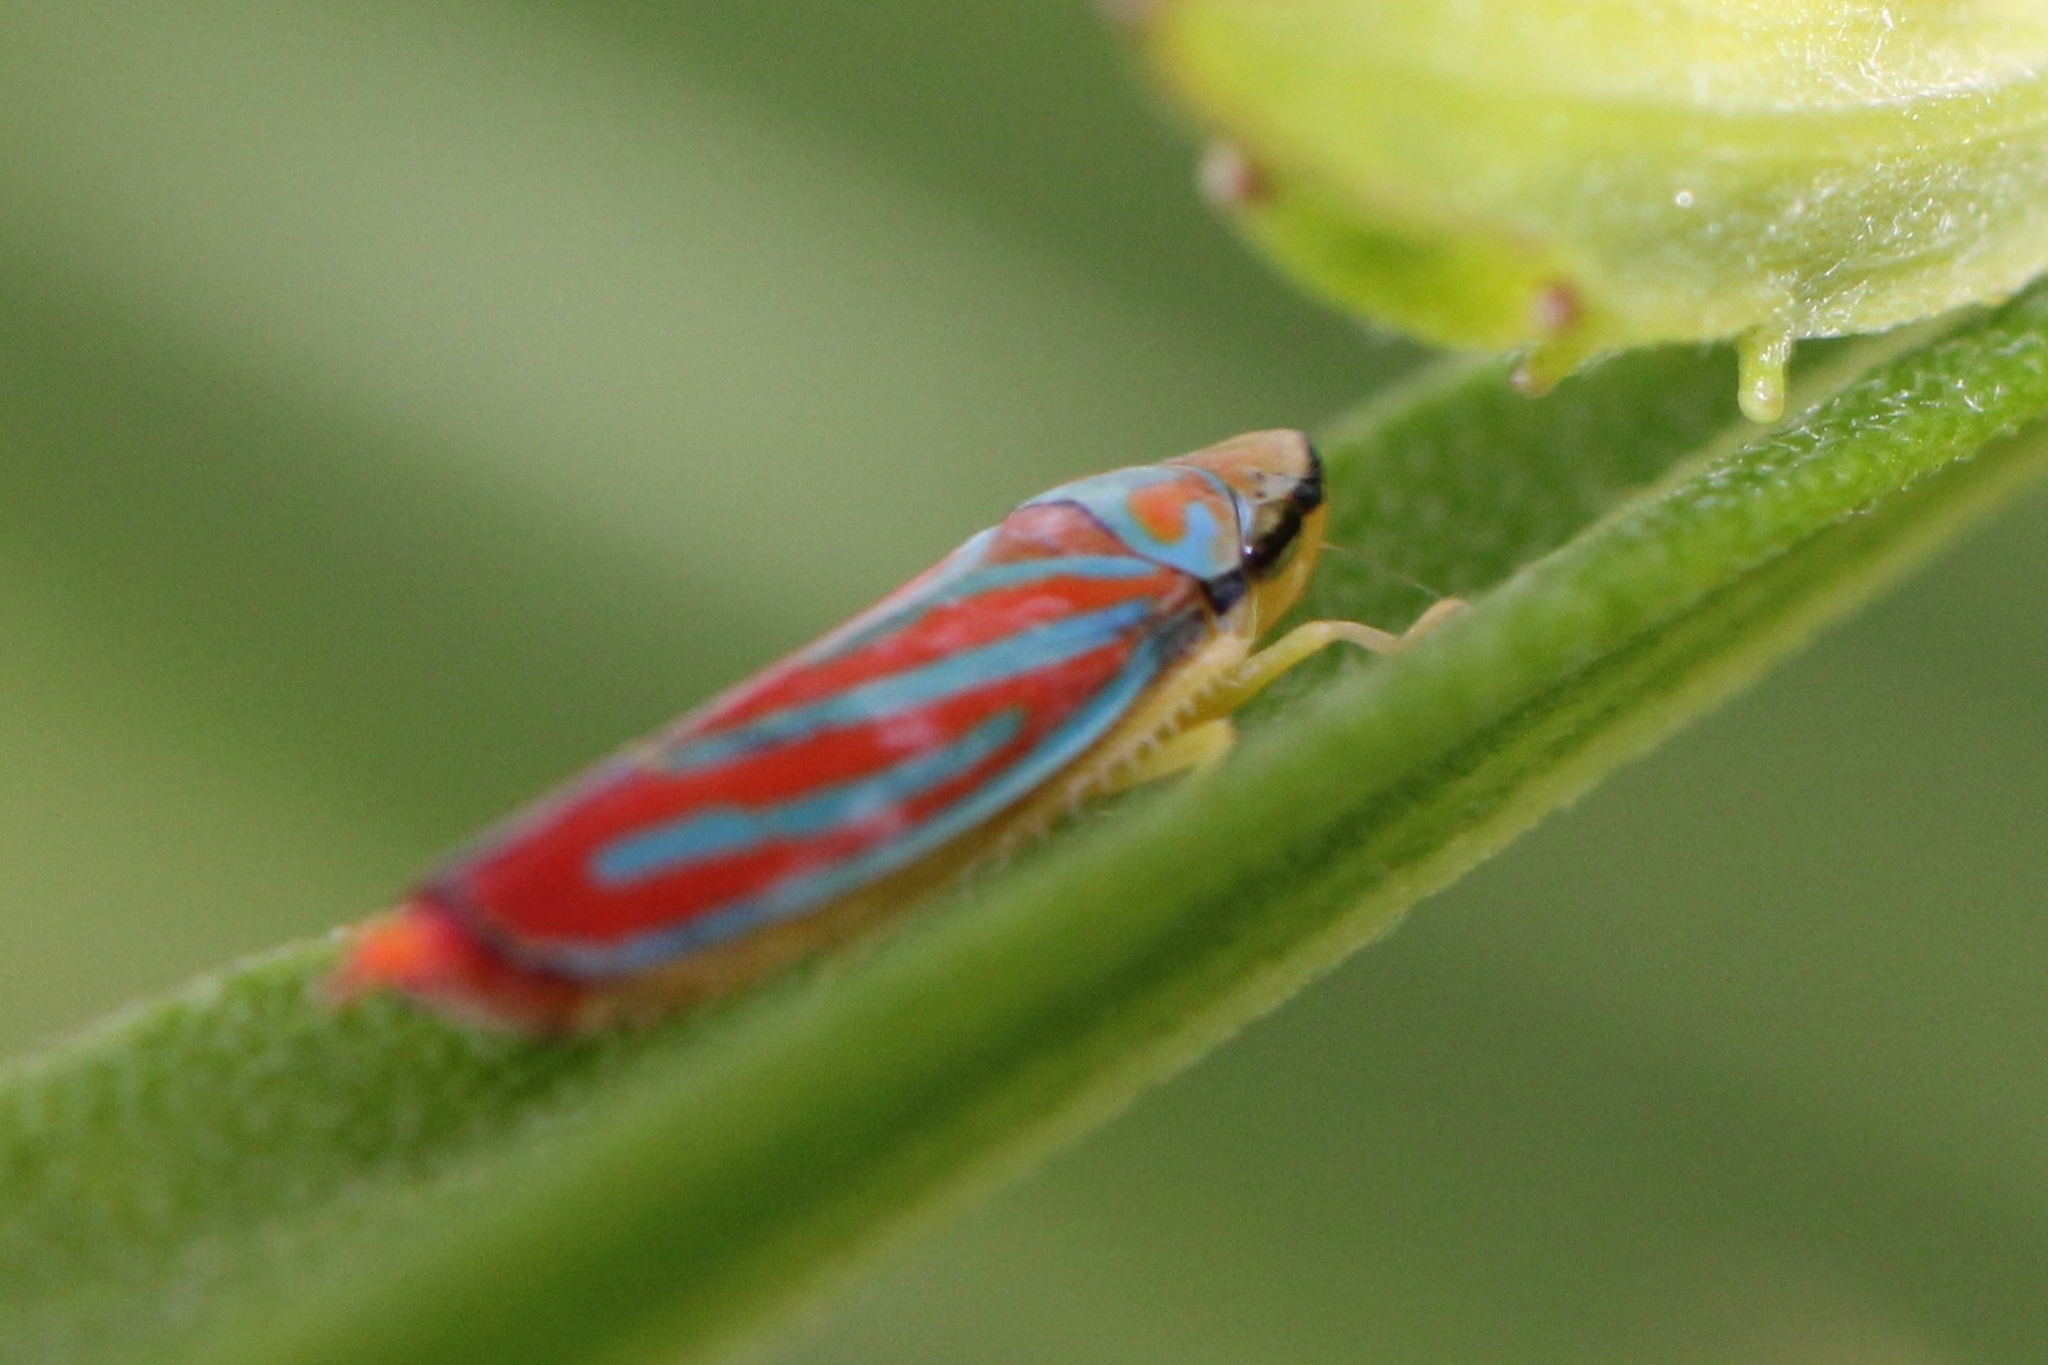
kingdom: Animalia
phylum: Arthropoda
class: Insecta
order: Hemiptera
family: Cicadellidae
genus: Graphocephala
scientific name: Graphocephala coccinea
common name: Candy-striped leafhopper
